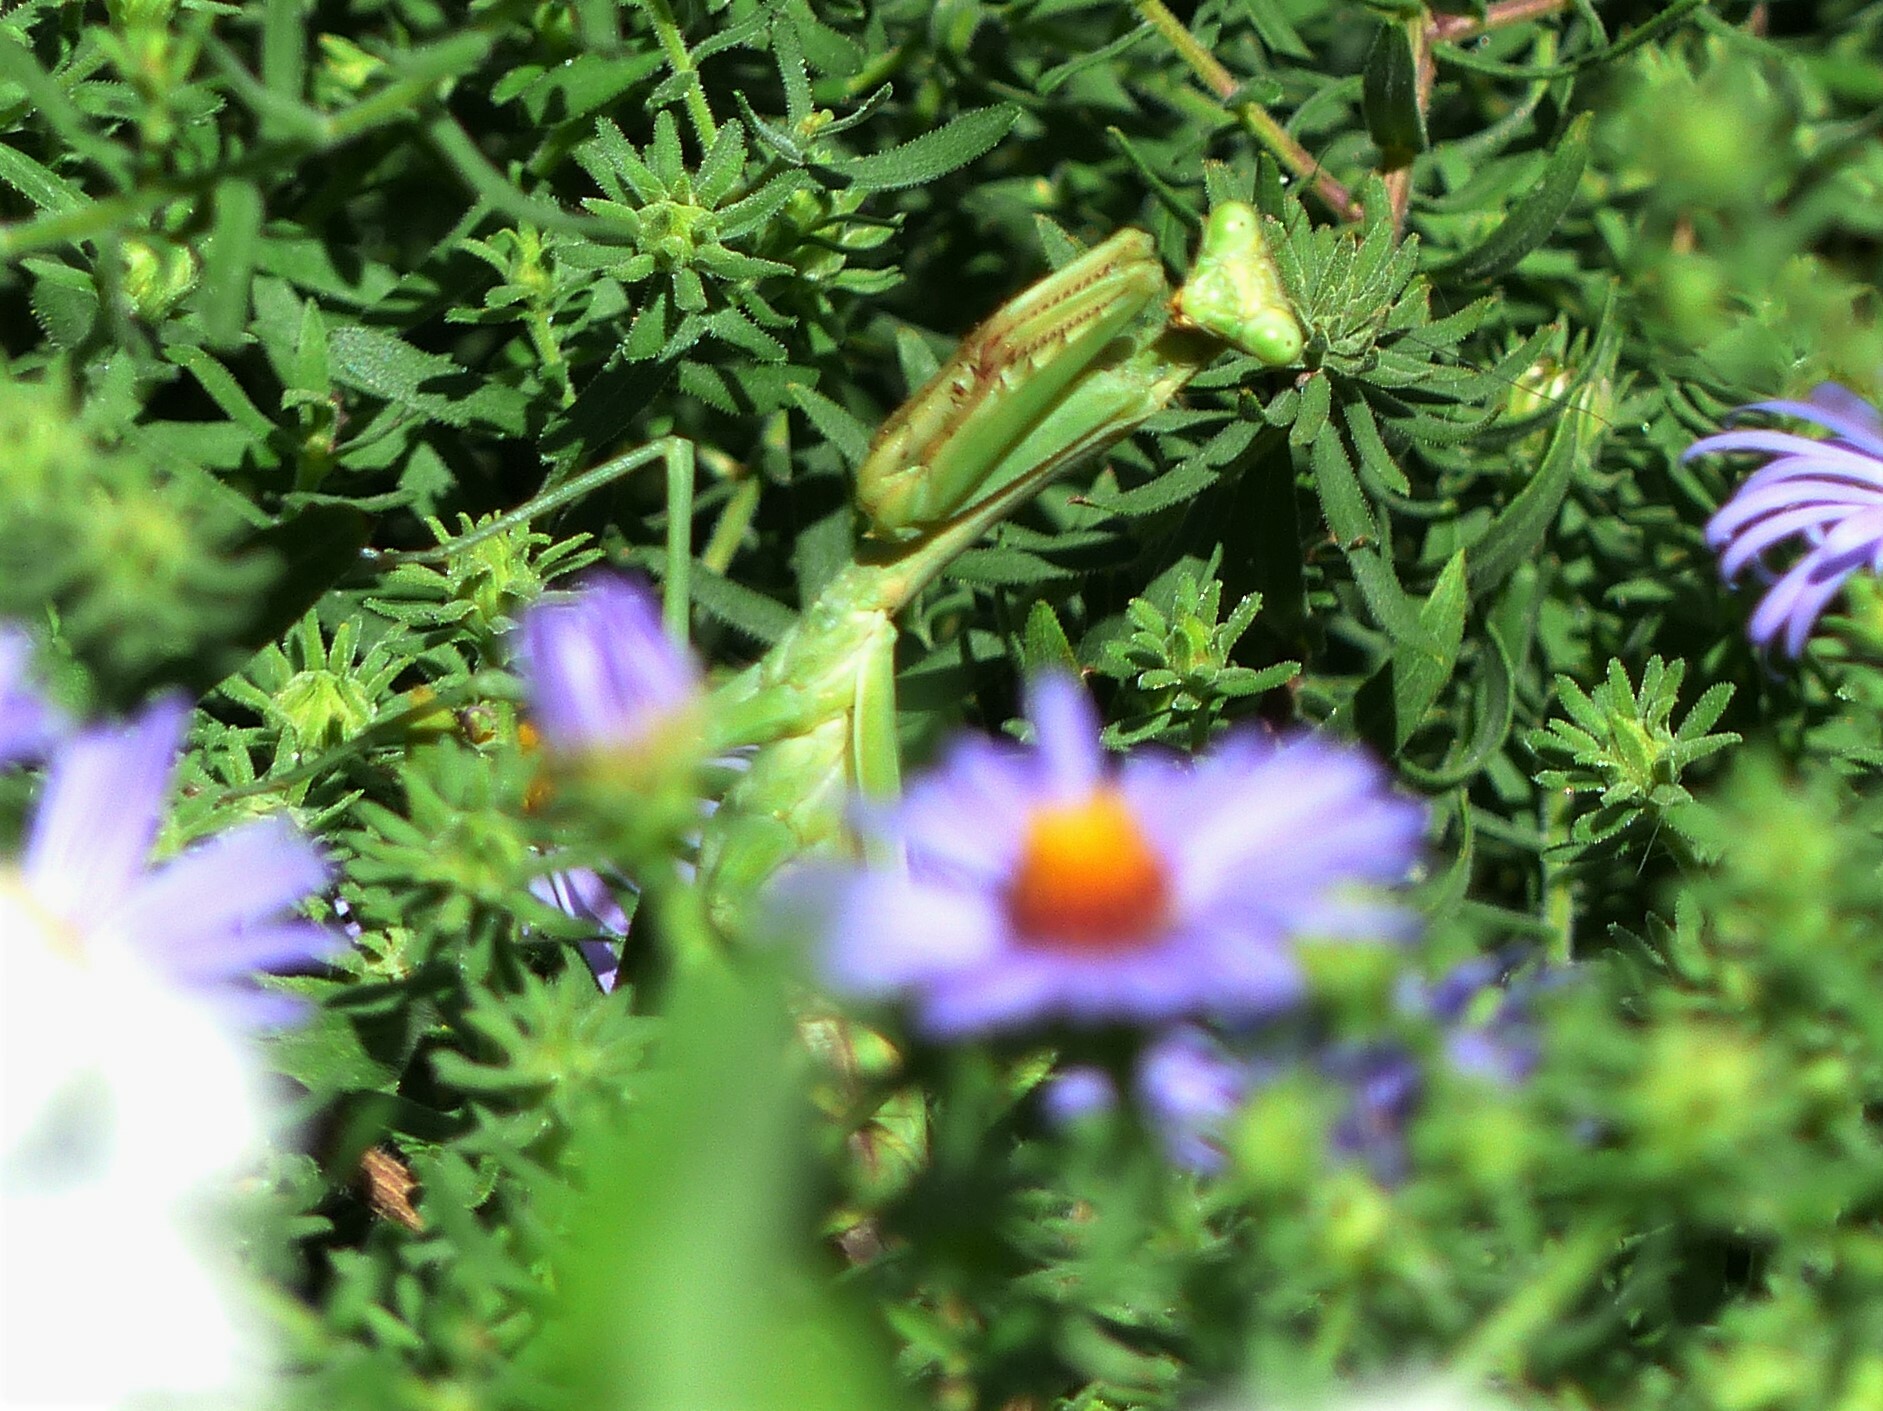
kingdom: Animalia
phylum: Arthropoda
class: Insecta
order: Mantodea
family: Mantidae
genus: Stagmomantis
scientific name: Stagmomantis carolina
